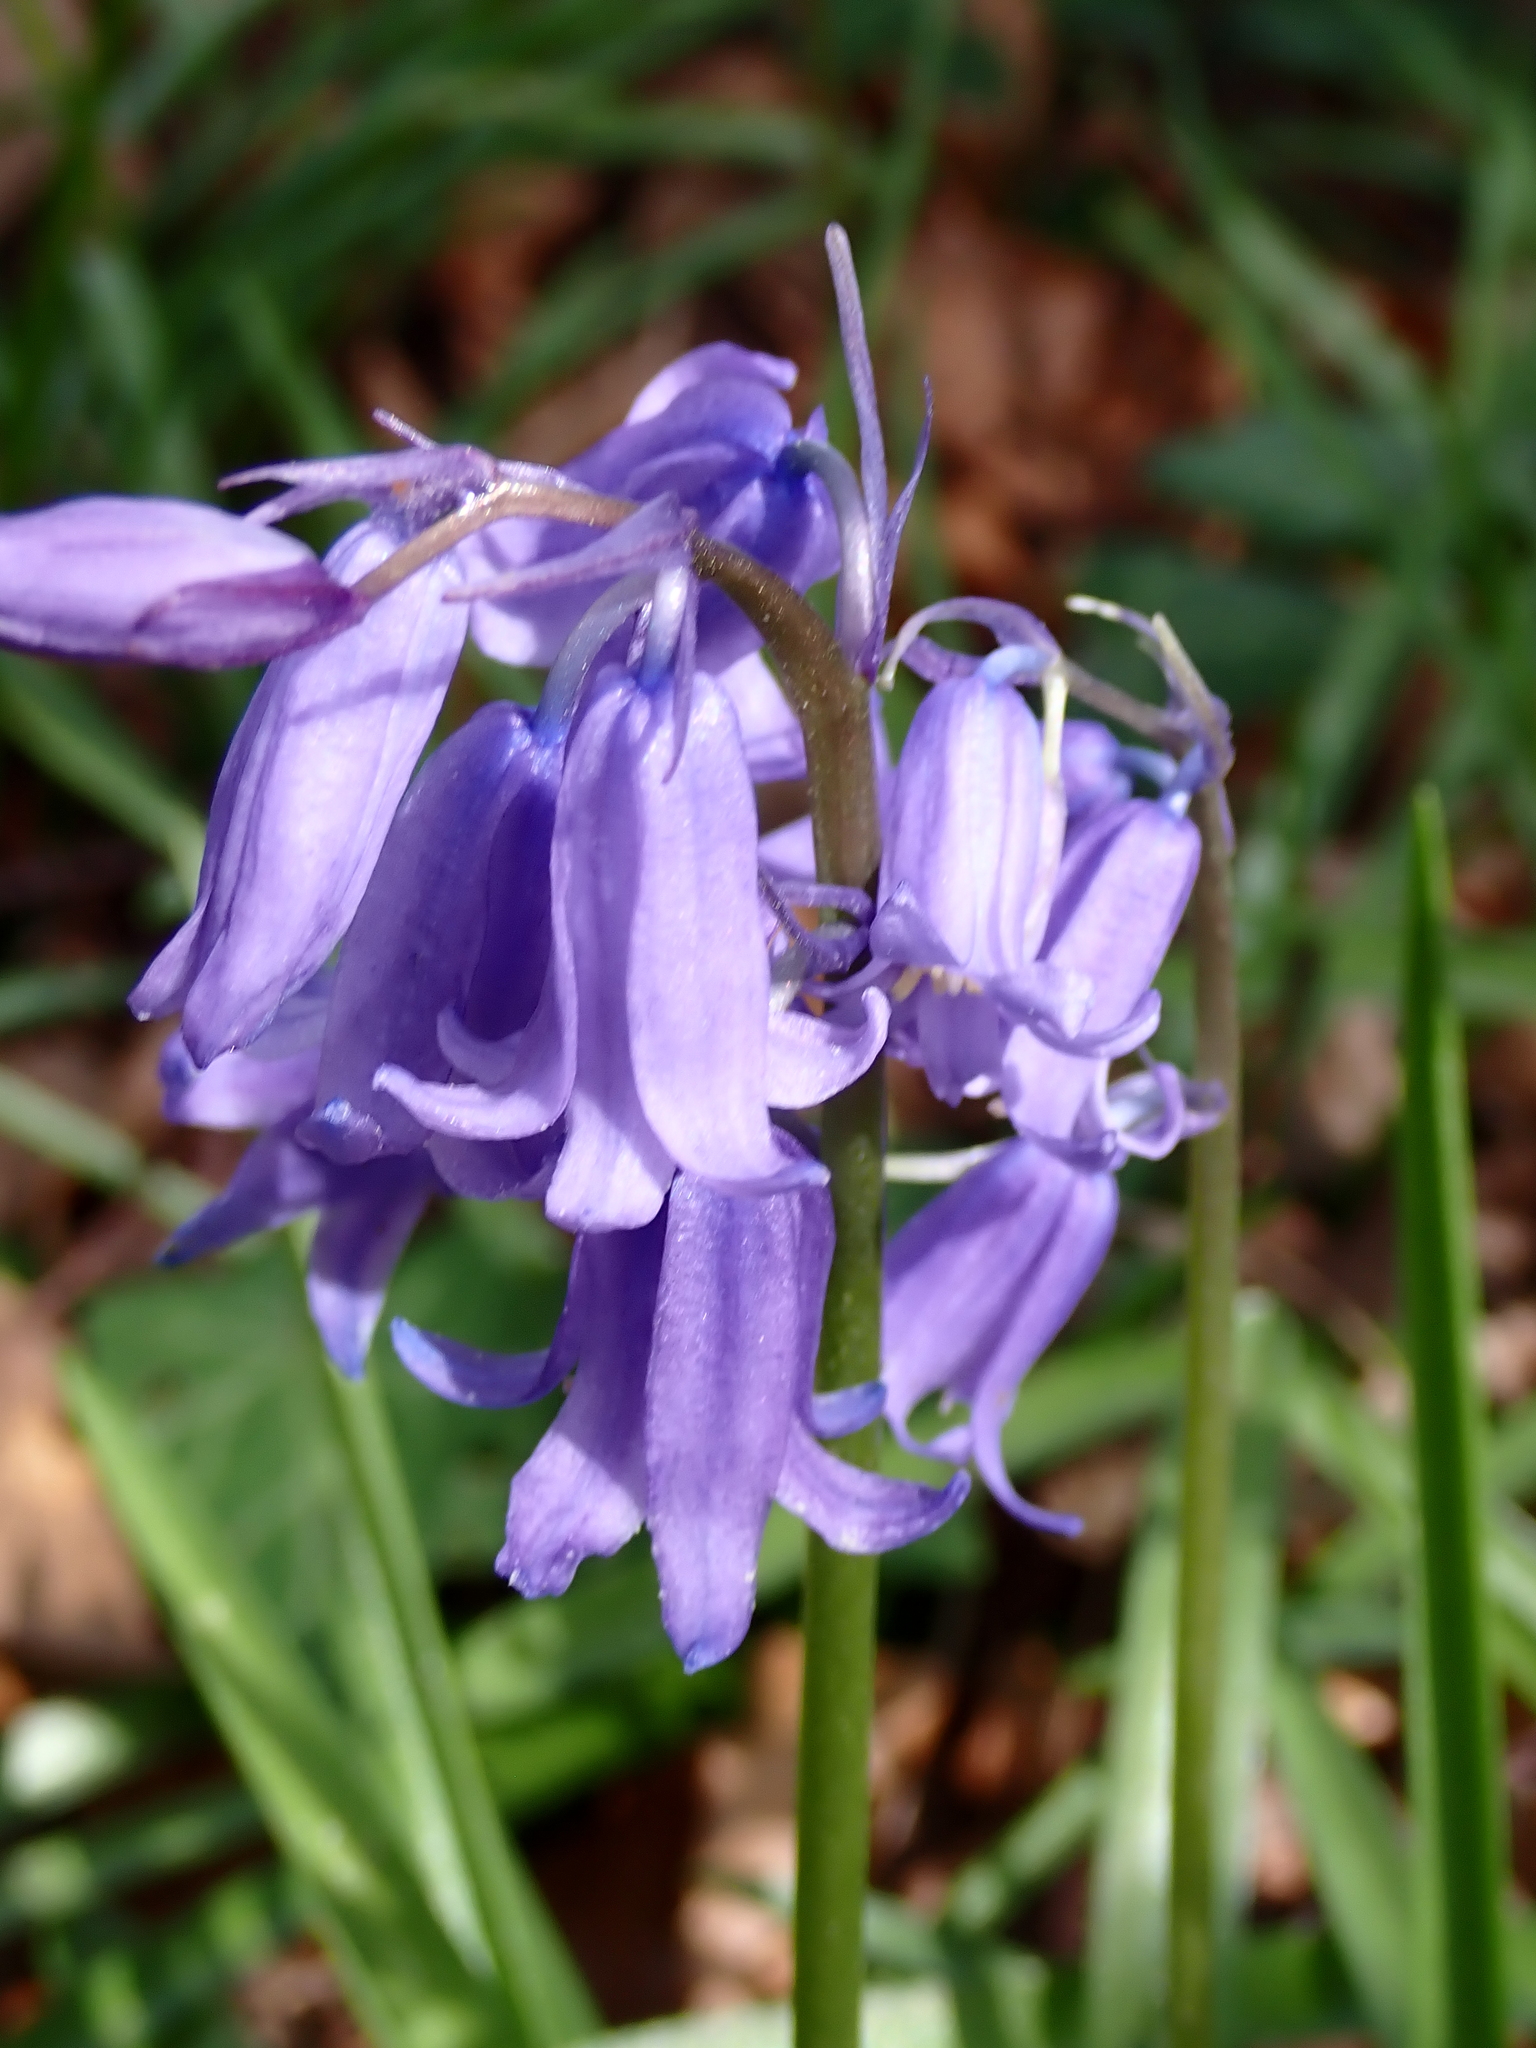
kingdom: Plantae
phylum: Tracheophyta
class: Liliopsida
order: Asparagales
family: Asparagaceae
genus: Hyacinthoides
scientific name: Hyacinthoides non-scripta
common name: Bluebell
